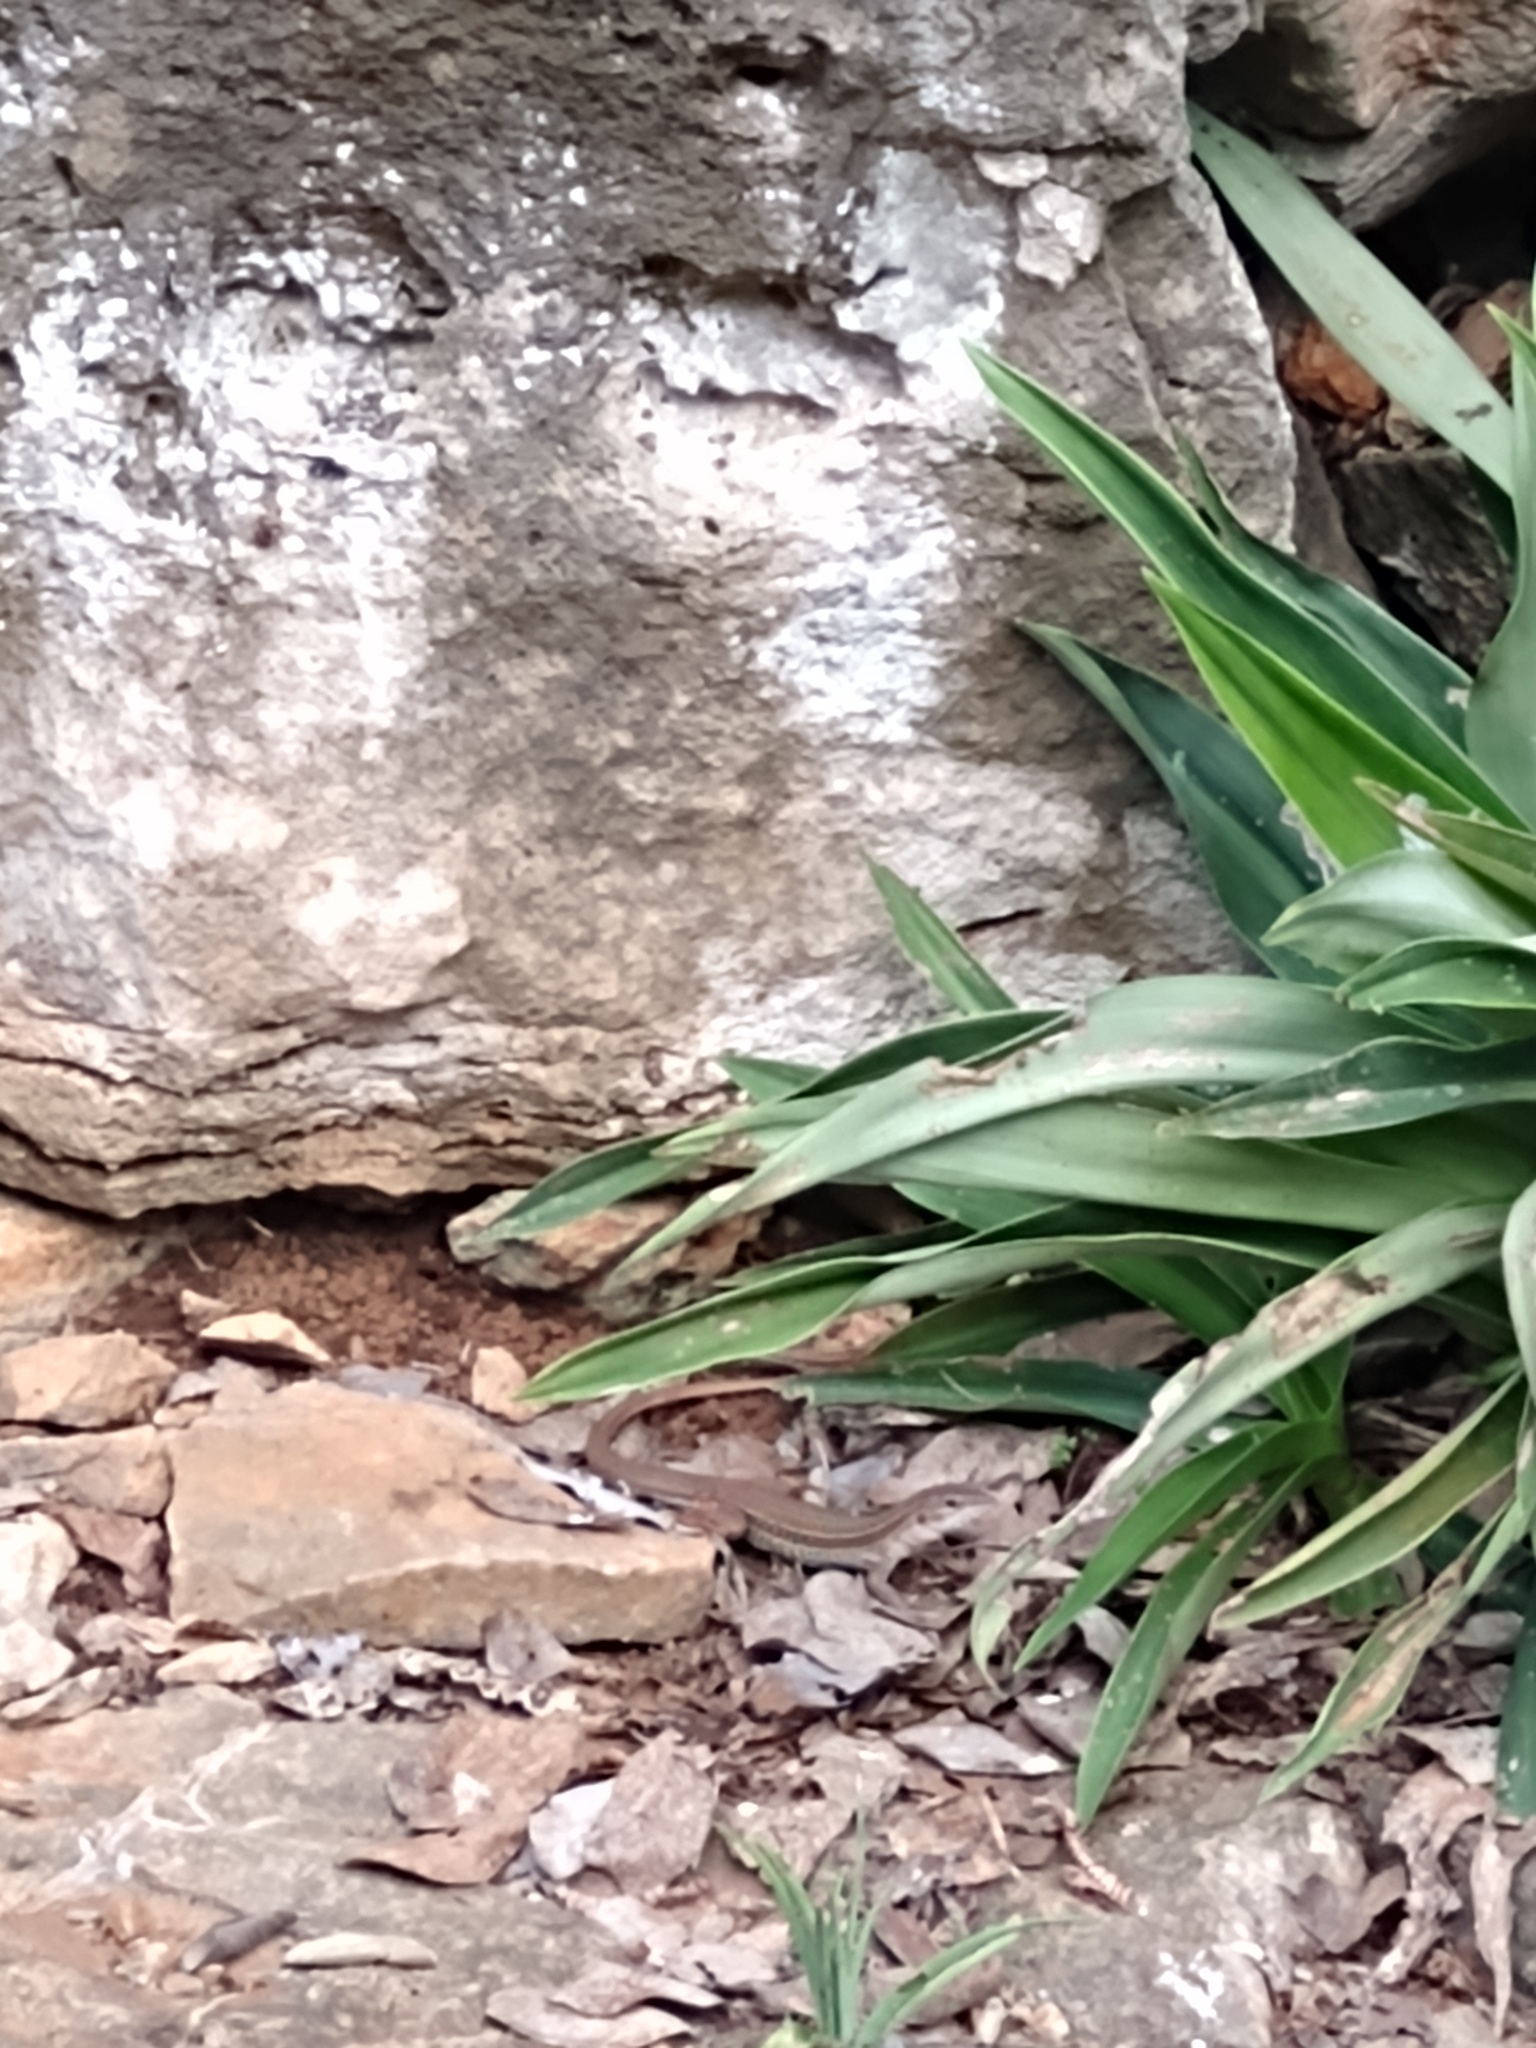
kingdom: Animalia
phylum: Chordata
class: Squamata
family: Teiidae
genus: Aspidoscelis
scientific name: Aspidoscelis angusticeps
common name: Yucatan whiptail
